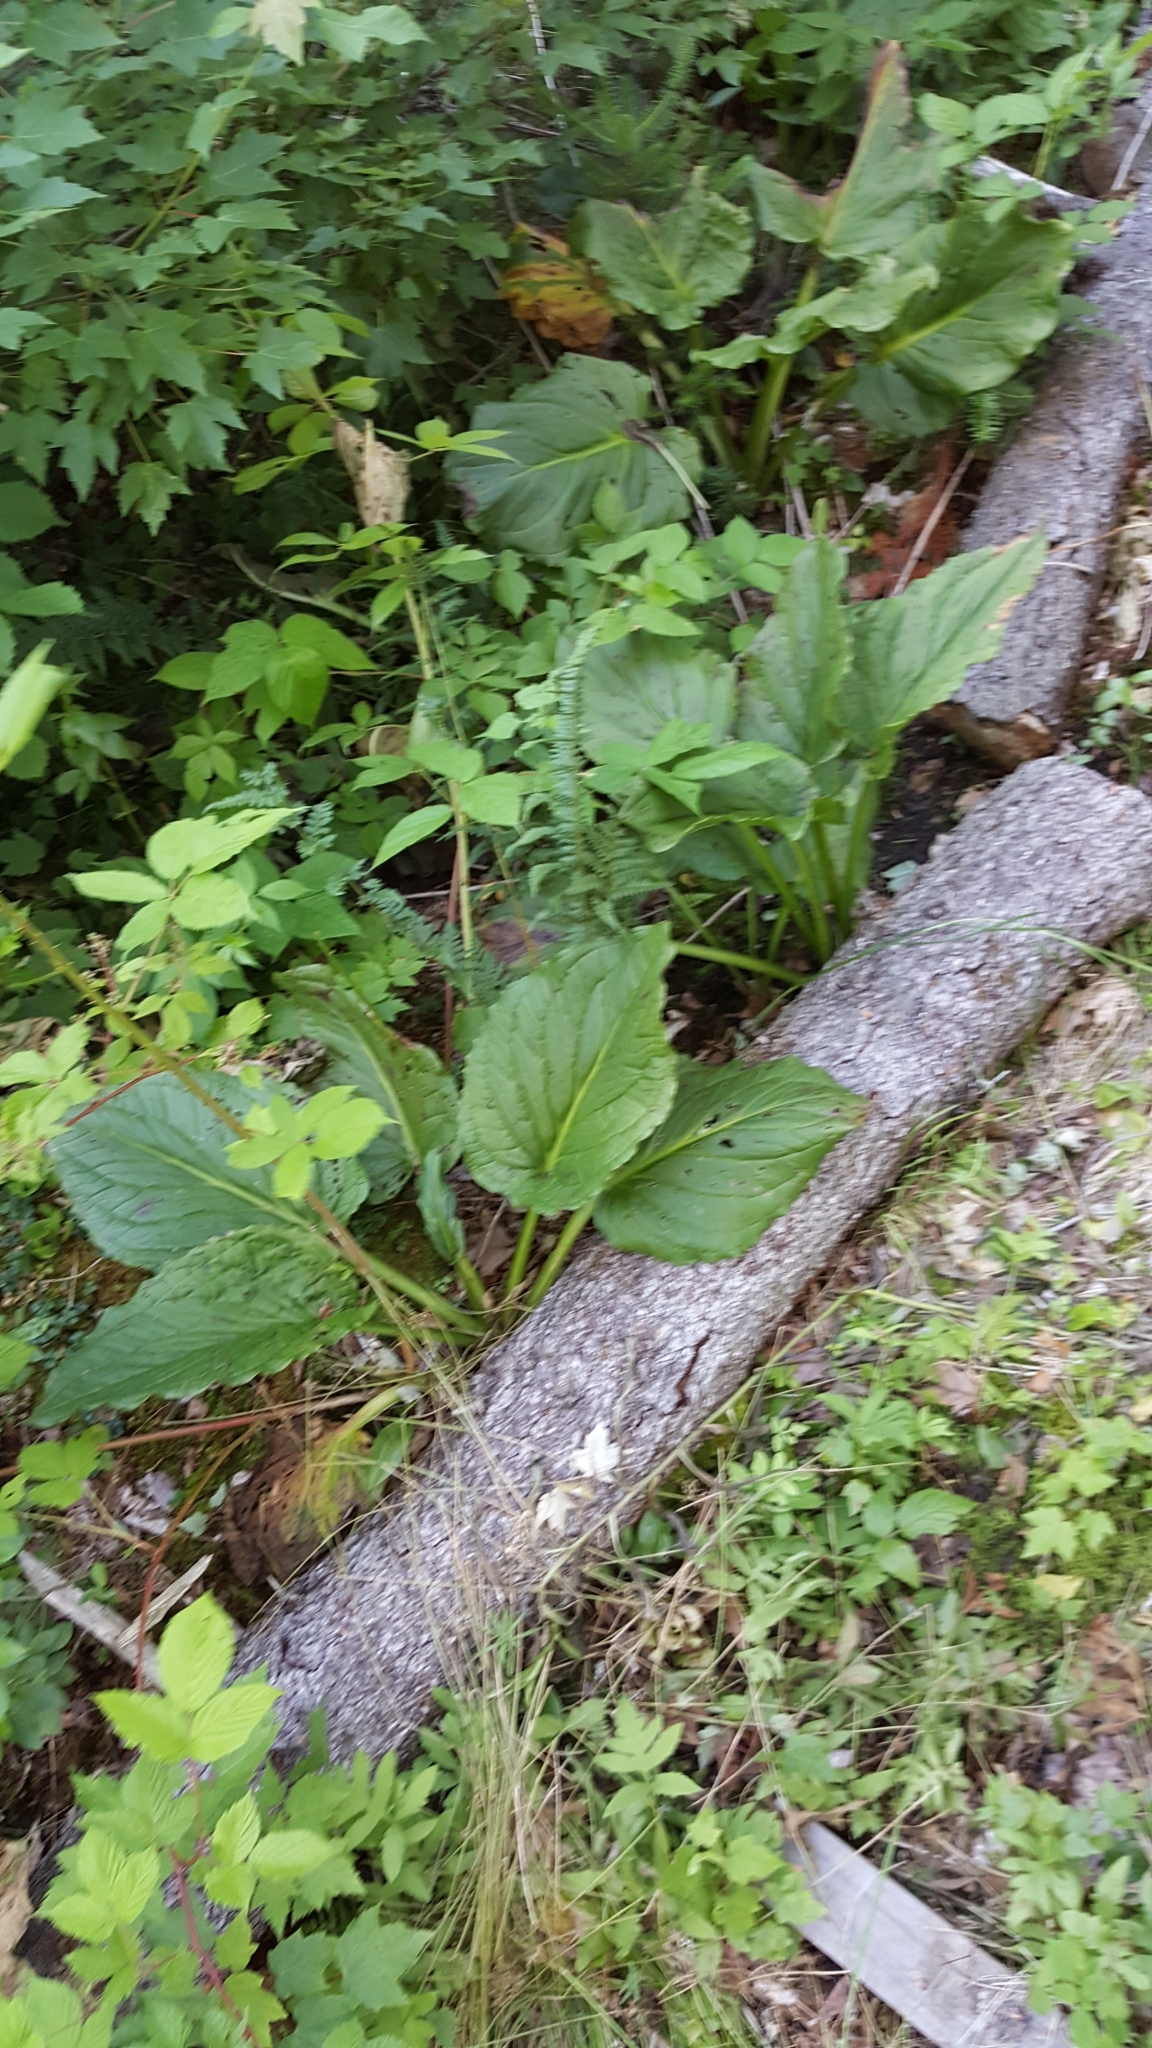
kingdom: Plantae
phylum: Tracheophyta
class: Liliopsida
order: Alismatales
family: Araceae
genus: Symplocarpus
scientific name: Symplocarpus foetidus
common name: Eastern skunk cabbage
